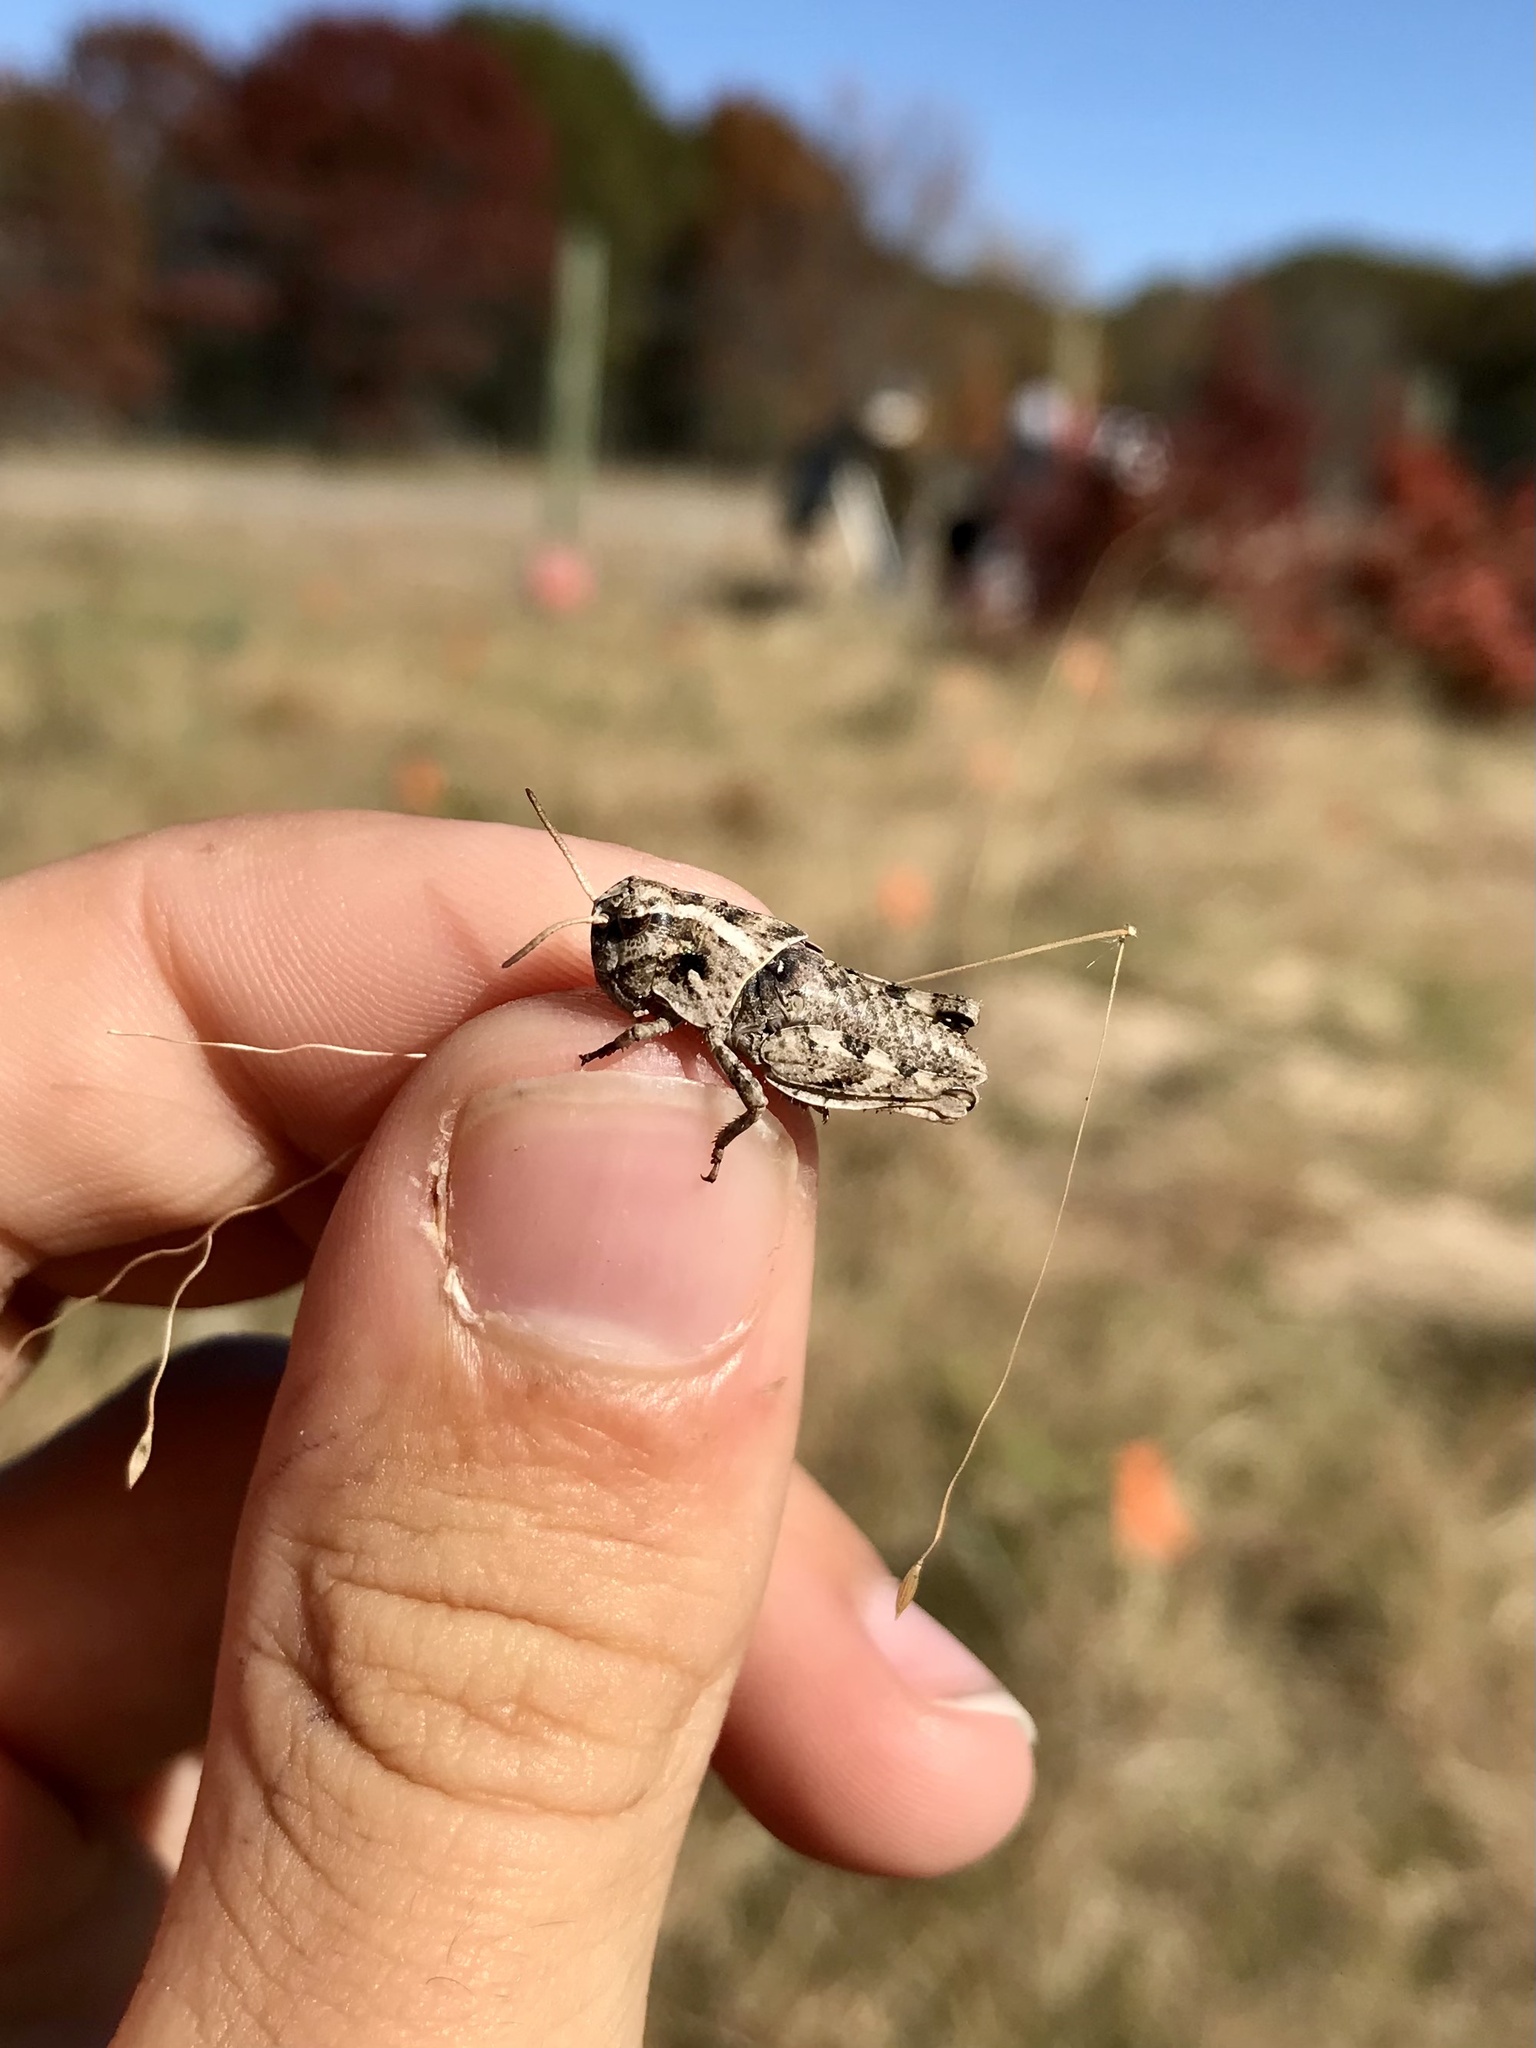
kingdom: Animalia
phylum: Arthropoda
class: Insecta
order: Orthoptera
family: Acrididae
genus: Pardalophora
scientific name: Pardalophora apiculata
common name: Coral-winged locust
